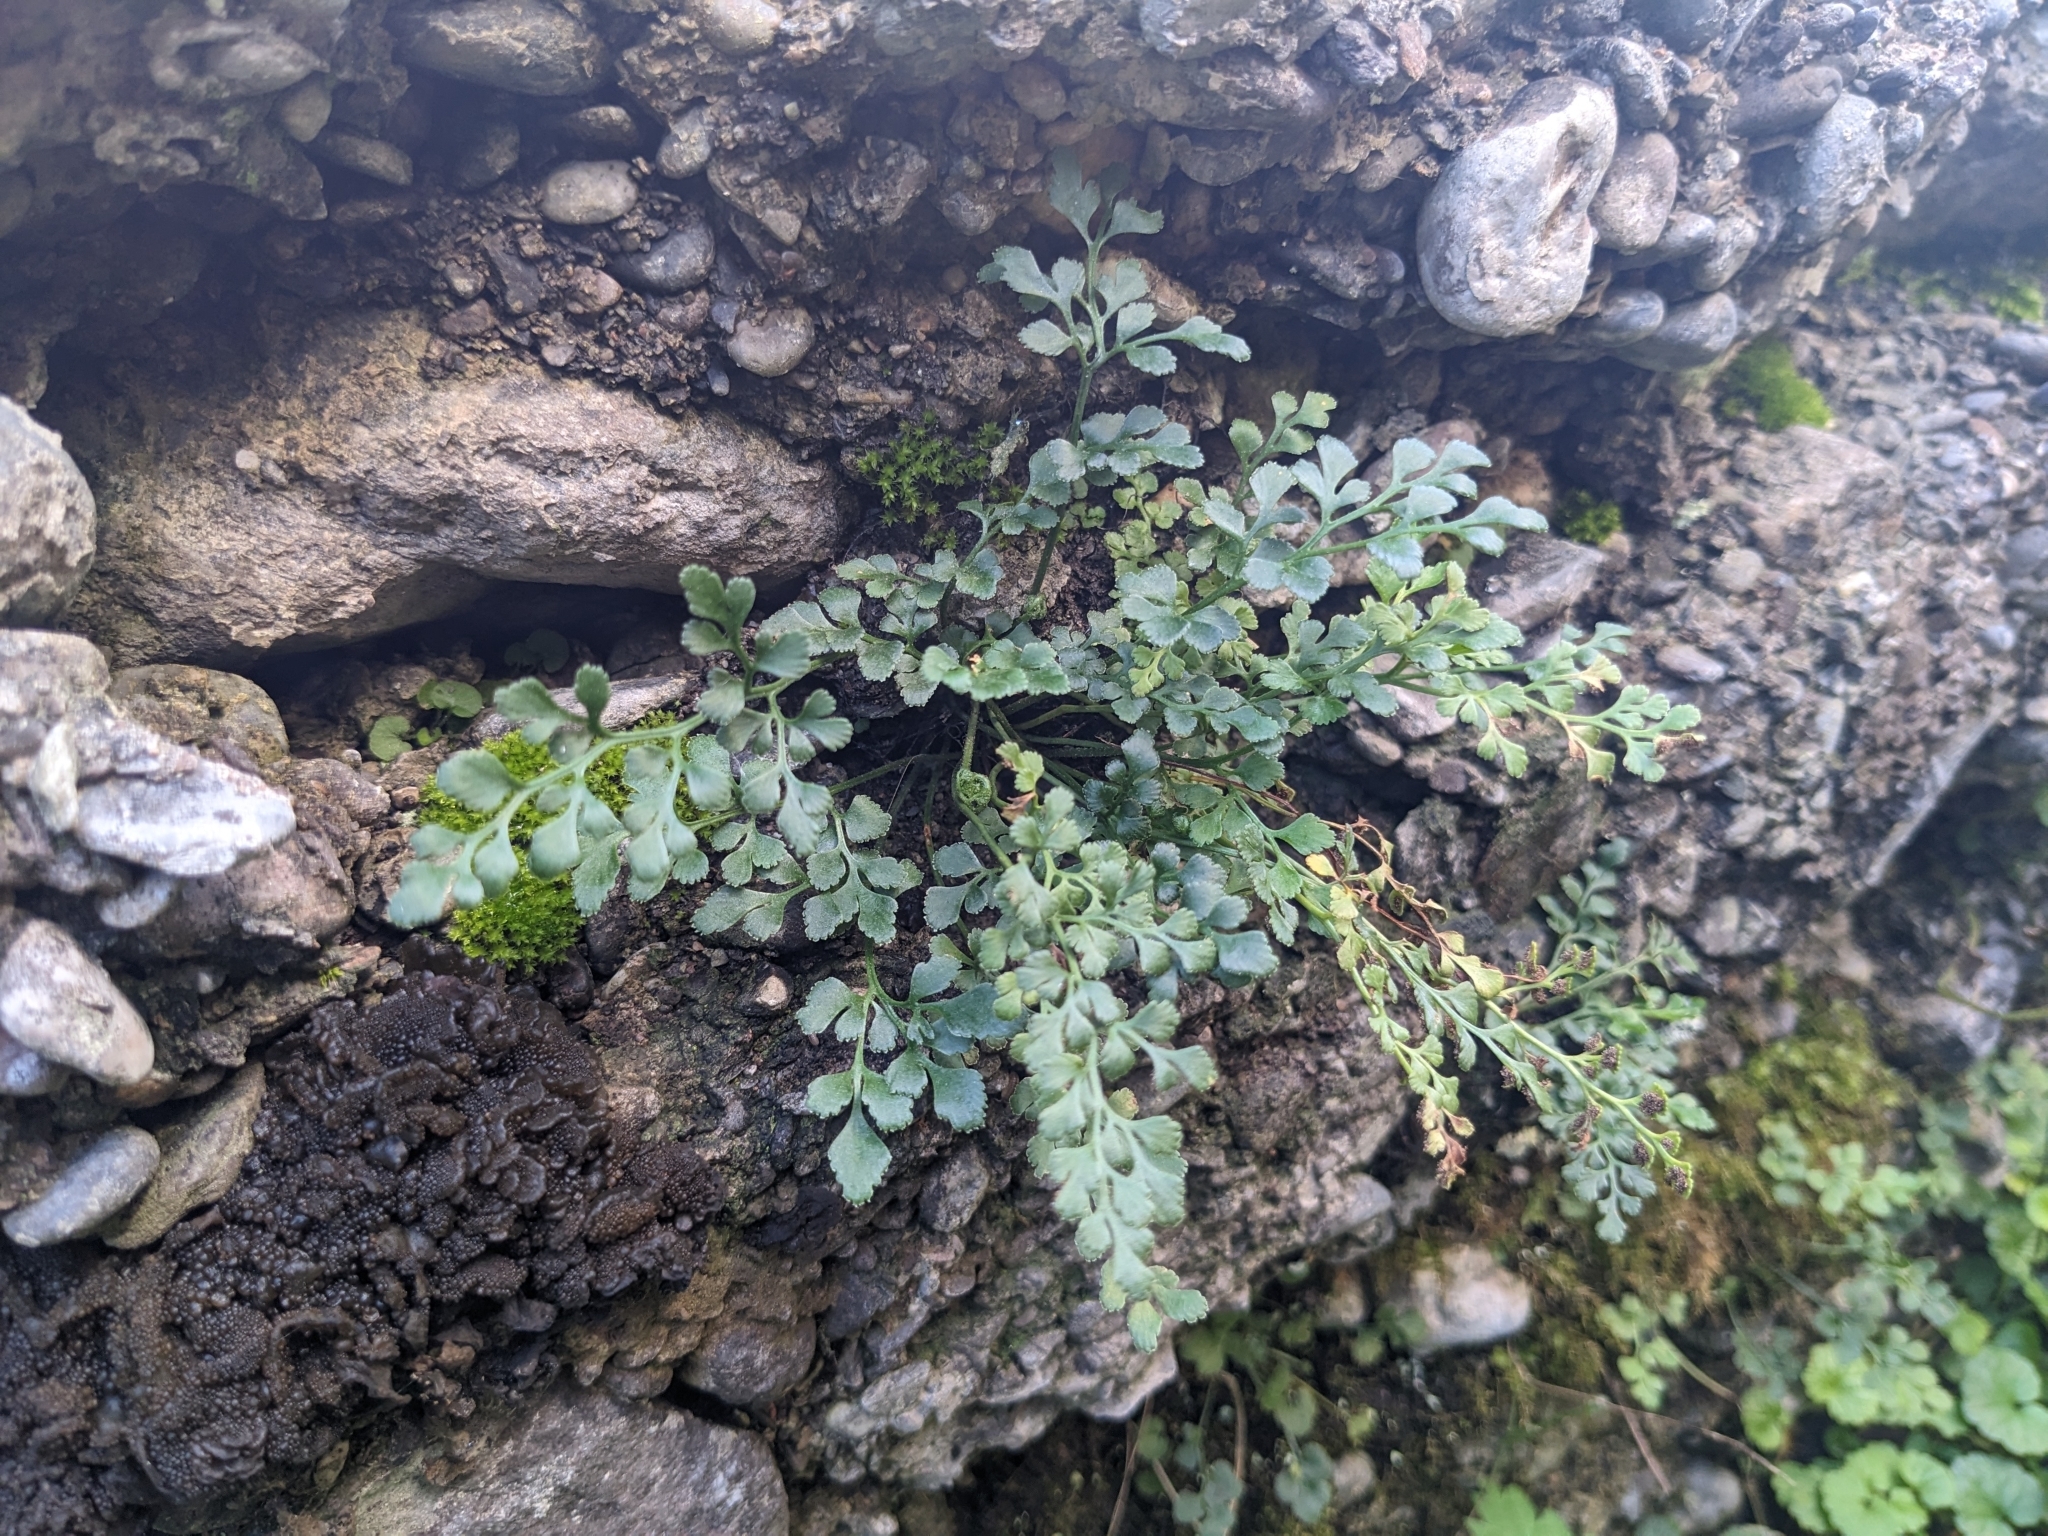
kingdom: Plantae
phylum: Tracheophyta
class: Polypodiopsida
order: Polypodiales
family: Aspleniaceae
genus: Asplenium
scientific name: Asplenium ruta-muraria
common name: Wall-rue
